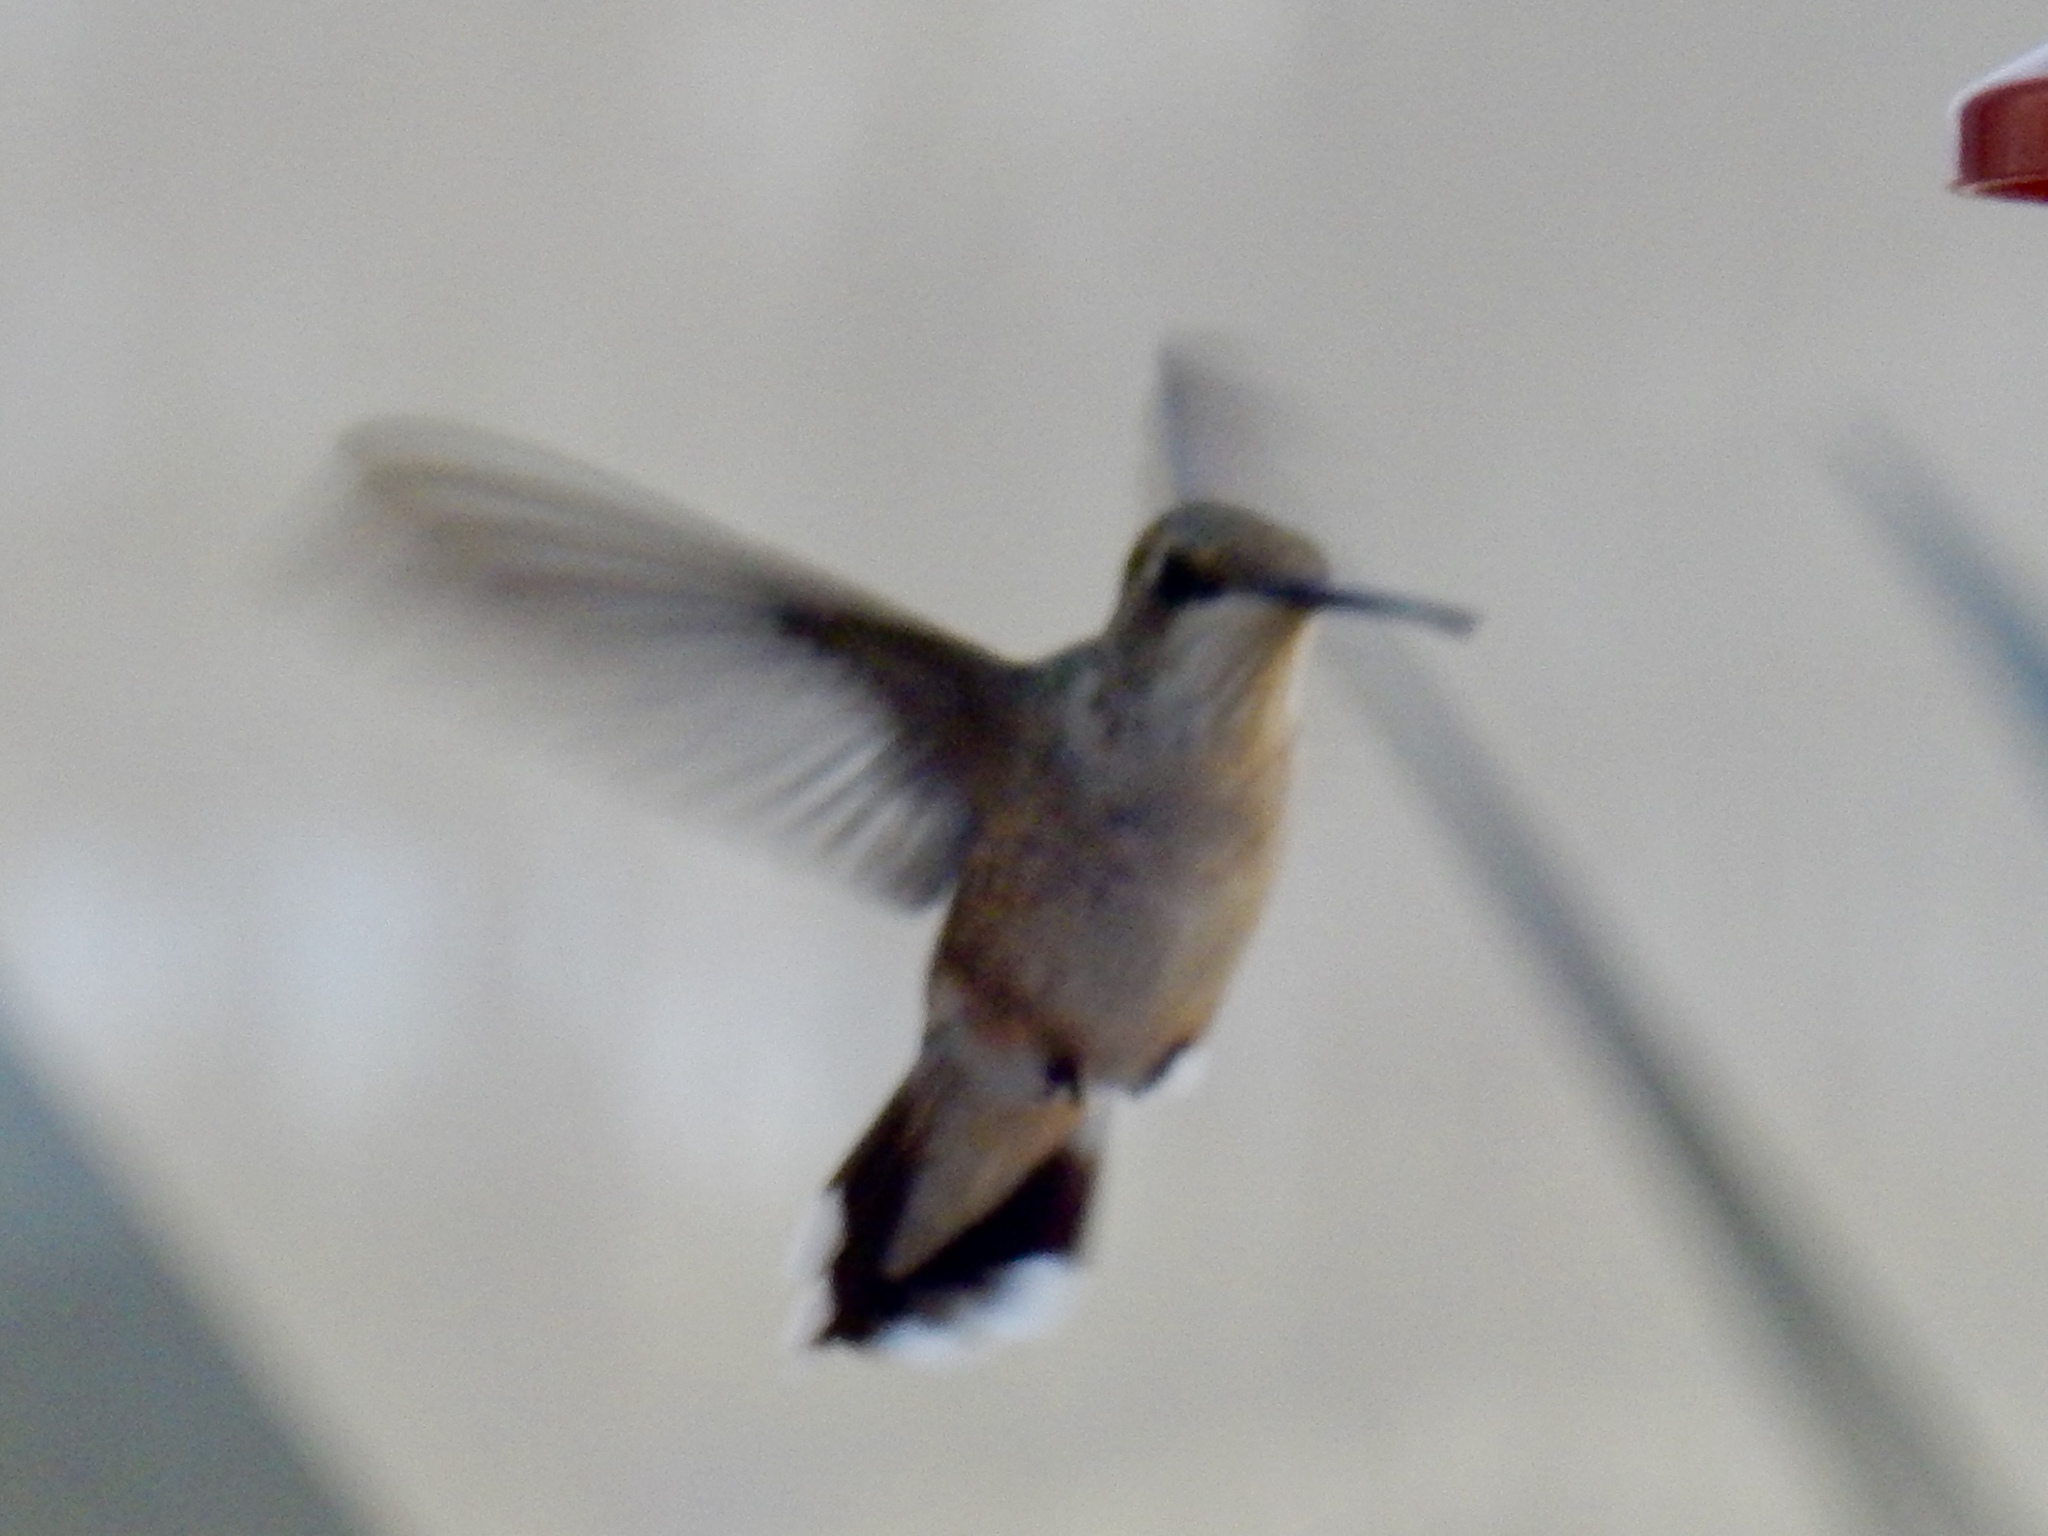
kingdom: Animalia
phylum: Chordata
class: Aves
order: Apodiformes
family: Trochilidae
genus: Archilochus
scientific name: Archilochus alexandri
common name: Black-chinned hummingbird
